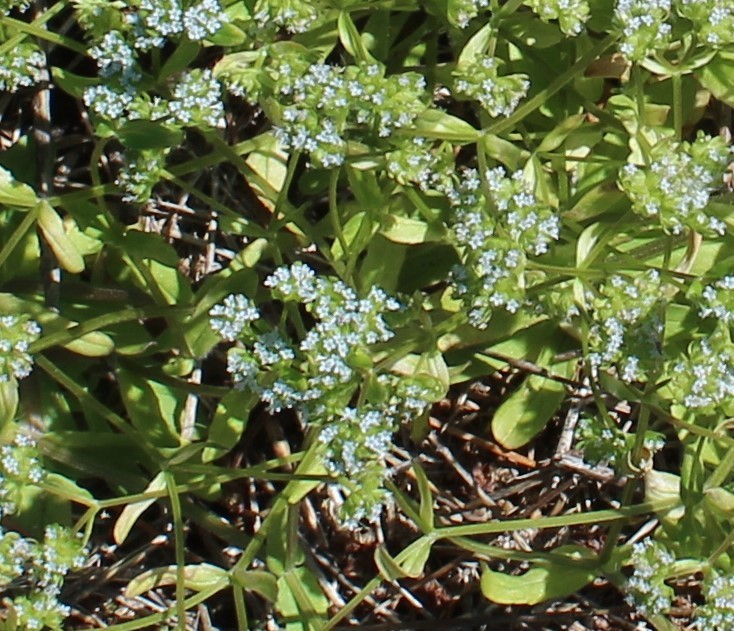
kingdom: Plantae
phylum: Tracheophyta
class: Magnoliopsida
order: Dipsacales
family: Caprifoliaceae
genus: Valerianella
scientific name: Valerianella locusta
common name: Common cornsalad
